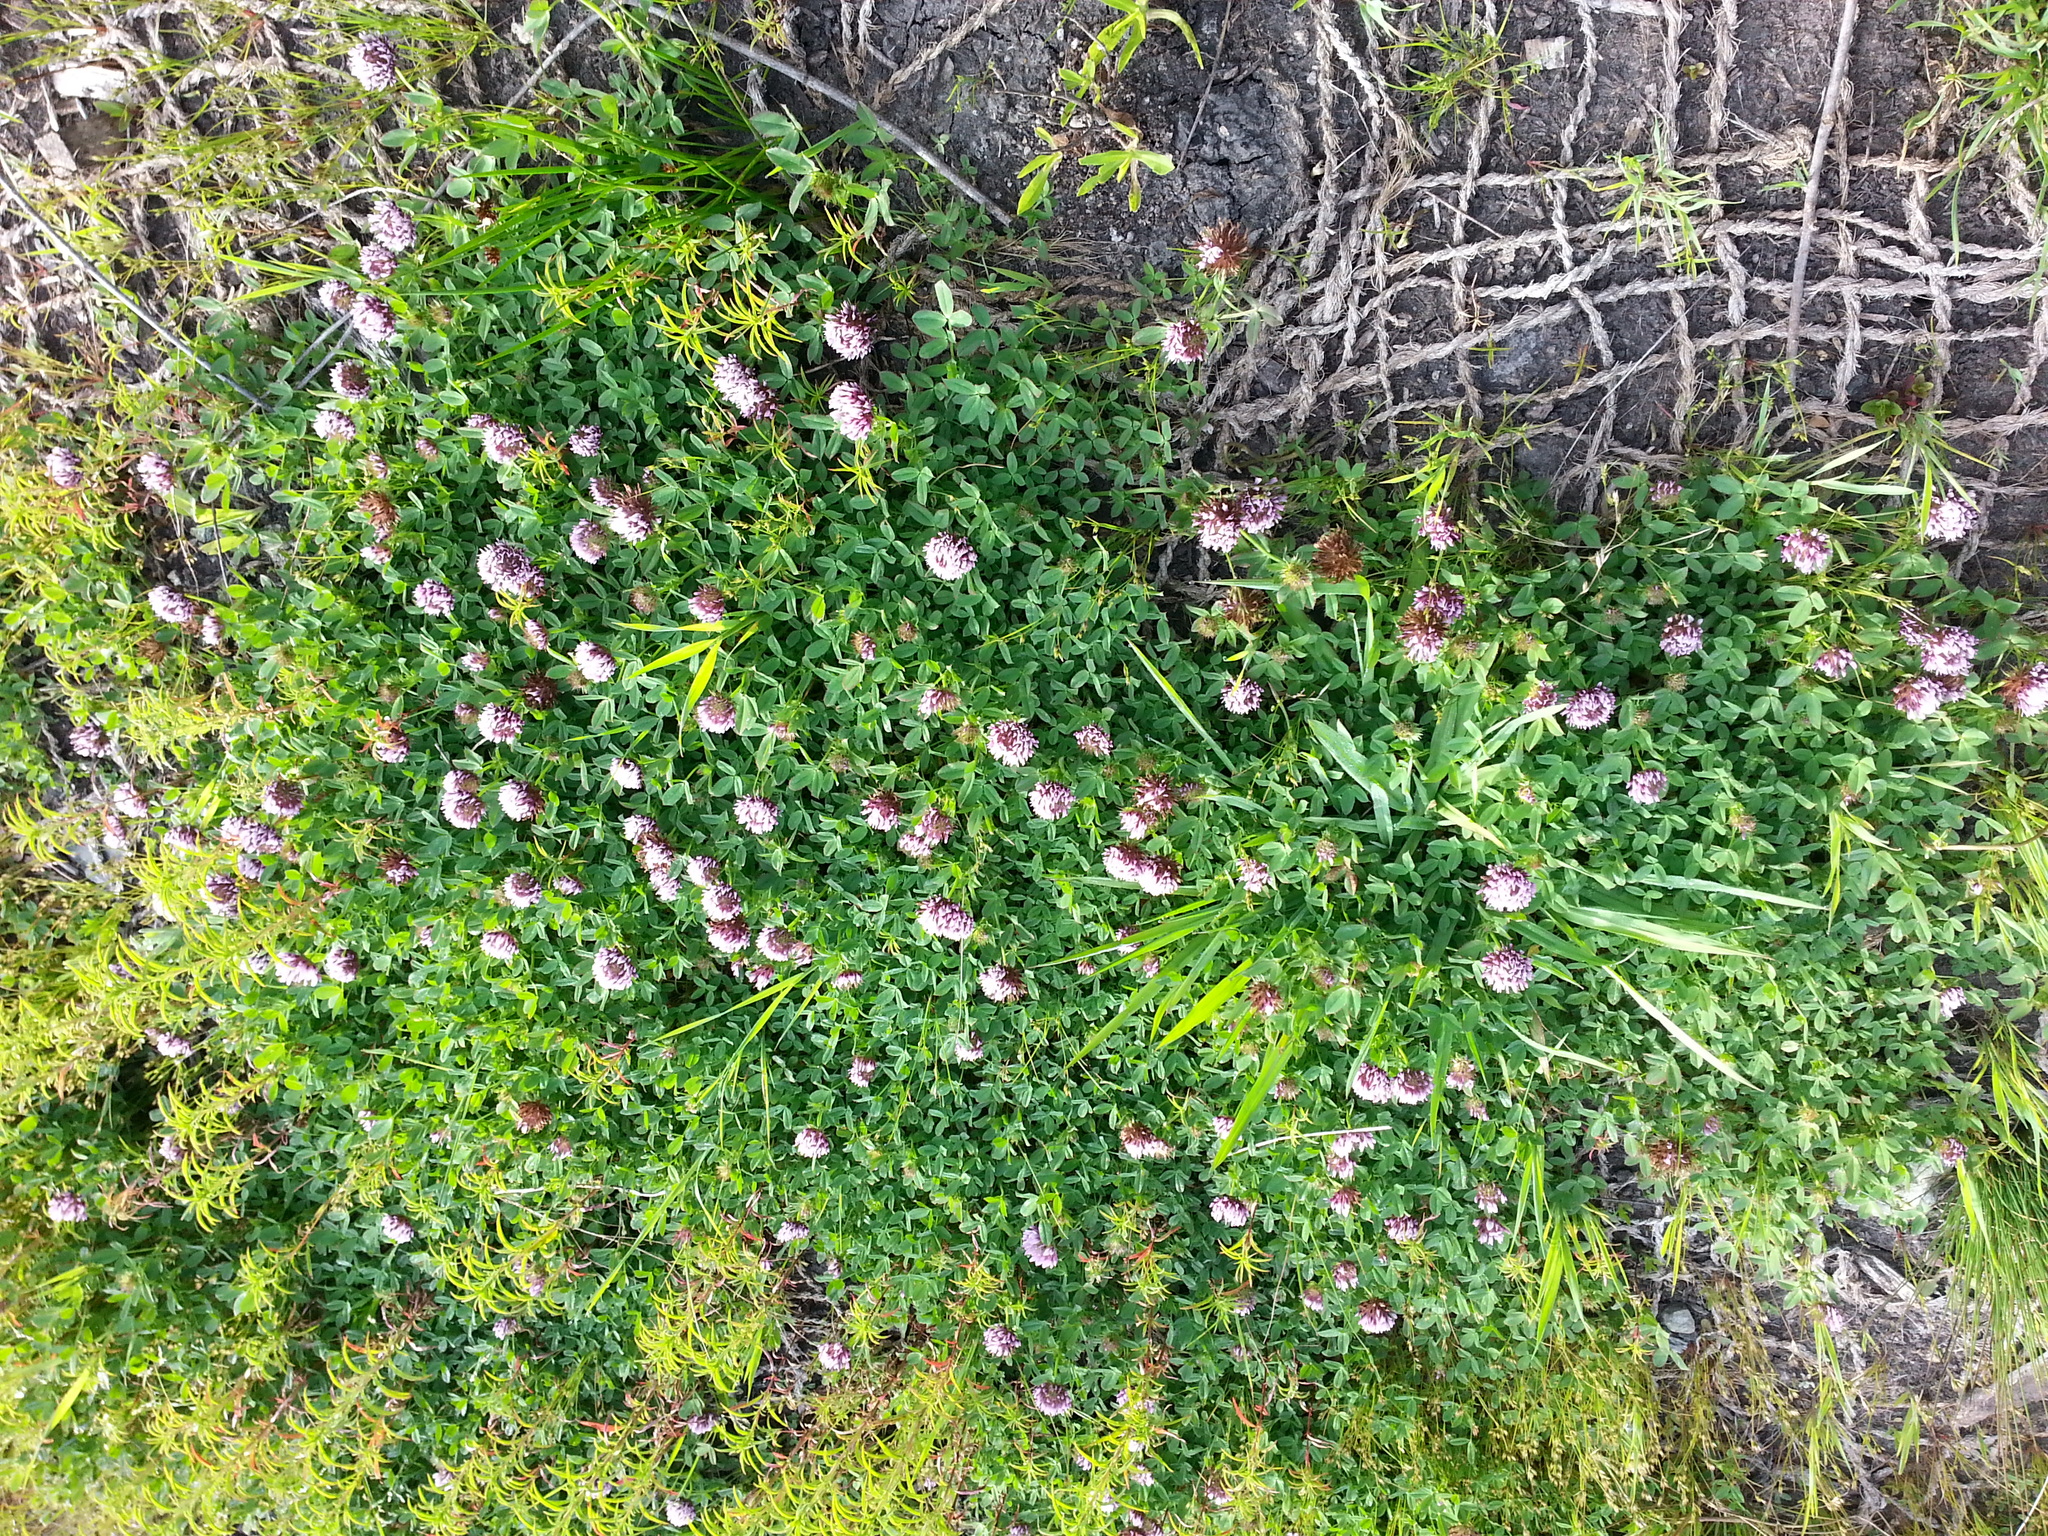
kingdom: Plantae
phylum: Tracheophyta
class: Magnoliopsida
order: Fabales
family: Fabaceae
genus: Trifolium
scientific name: Trifolium wormskioldii
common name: Springbank clover
